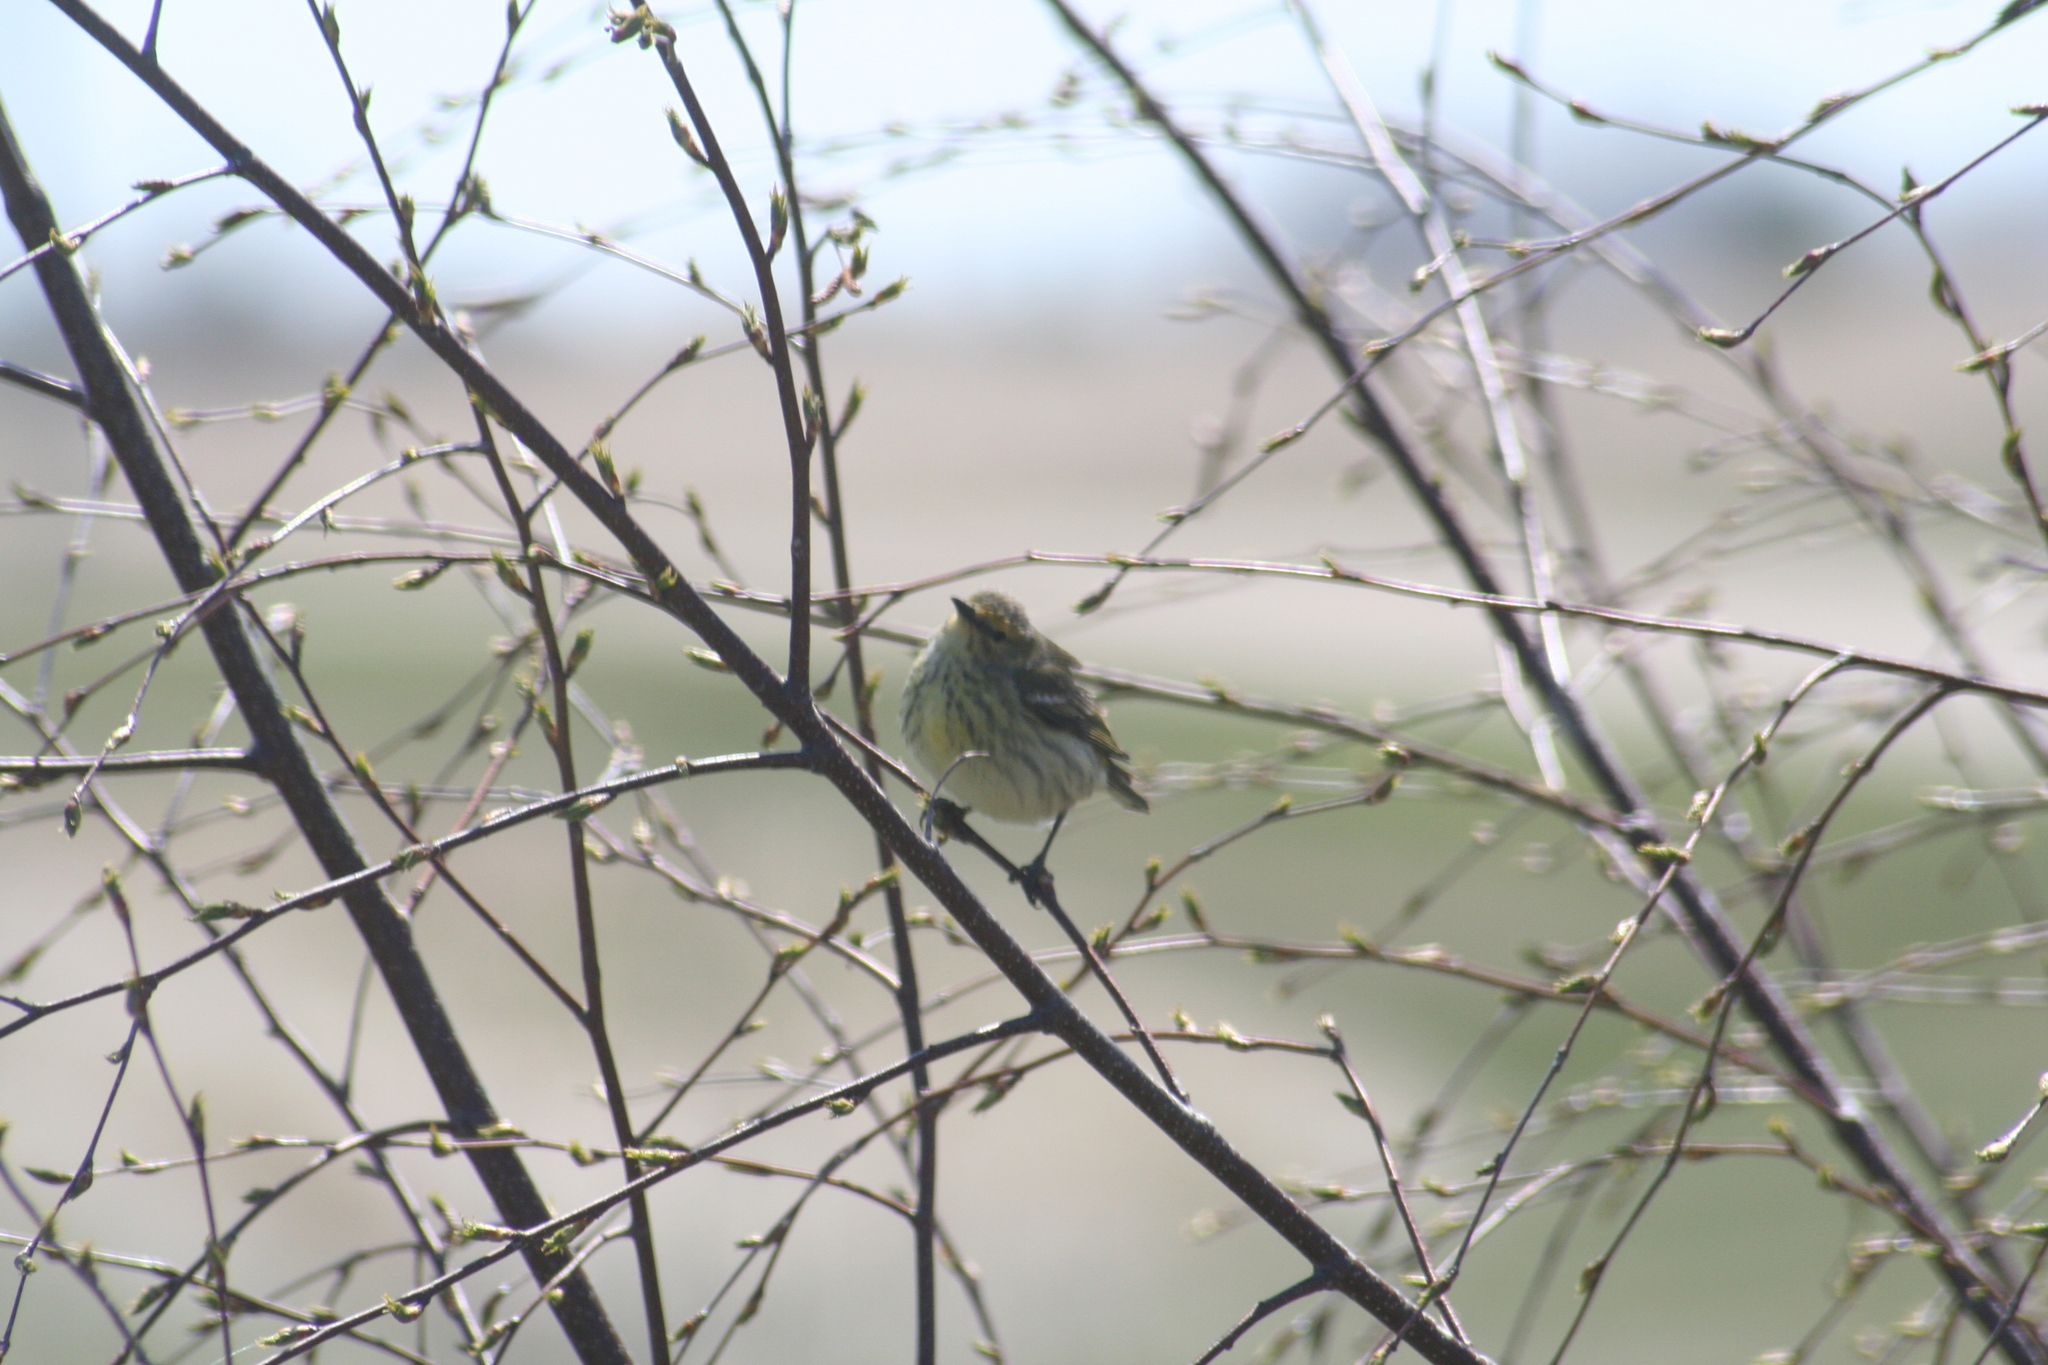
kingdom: Animalia
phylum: Chordata
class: Aves
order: Passeriformes
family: Parulidae
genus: Setophaga
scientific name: Setophaga tigrina
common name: Cape may warbler
